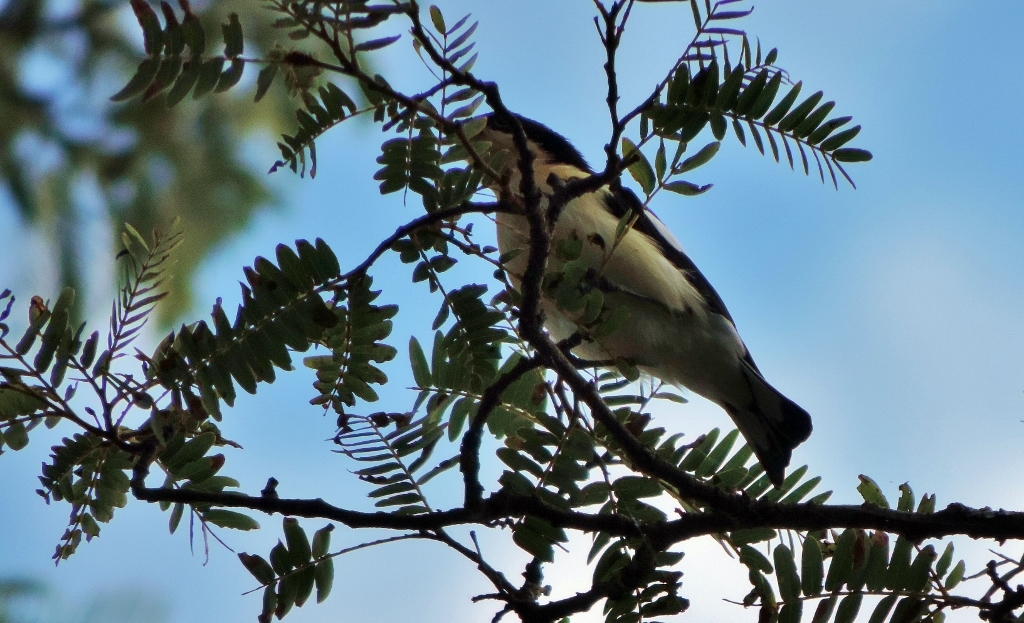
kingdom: Animalia
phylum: Chordata
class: Aves
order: Passeriformes
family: Hyliotidae
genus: Hyliota
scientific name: Hyliota australis
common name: Southern hyliota
